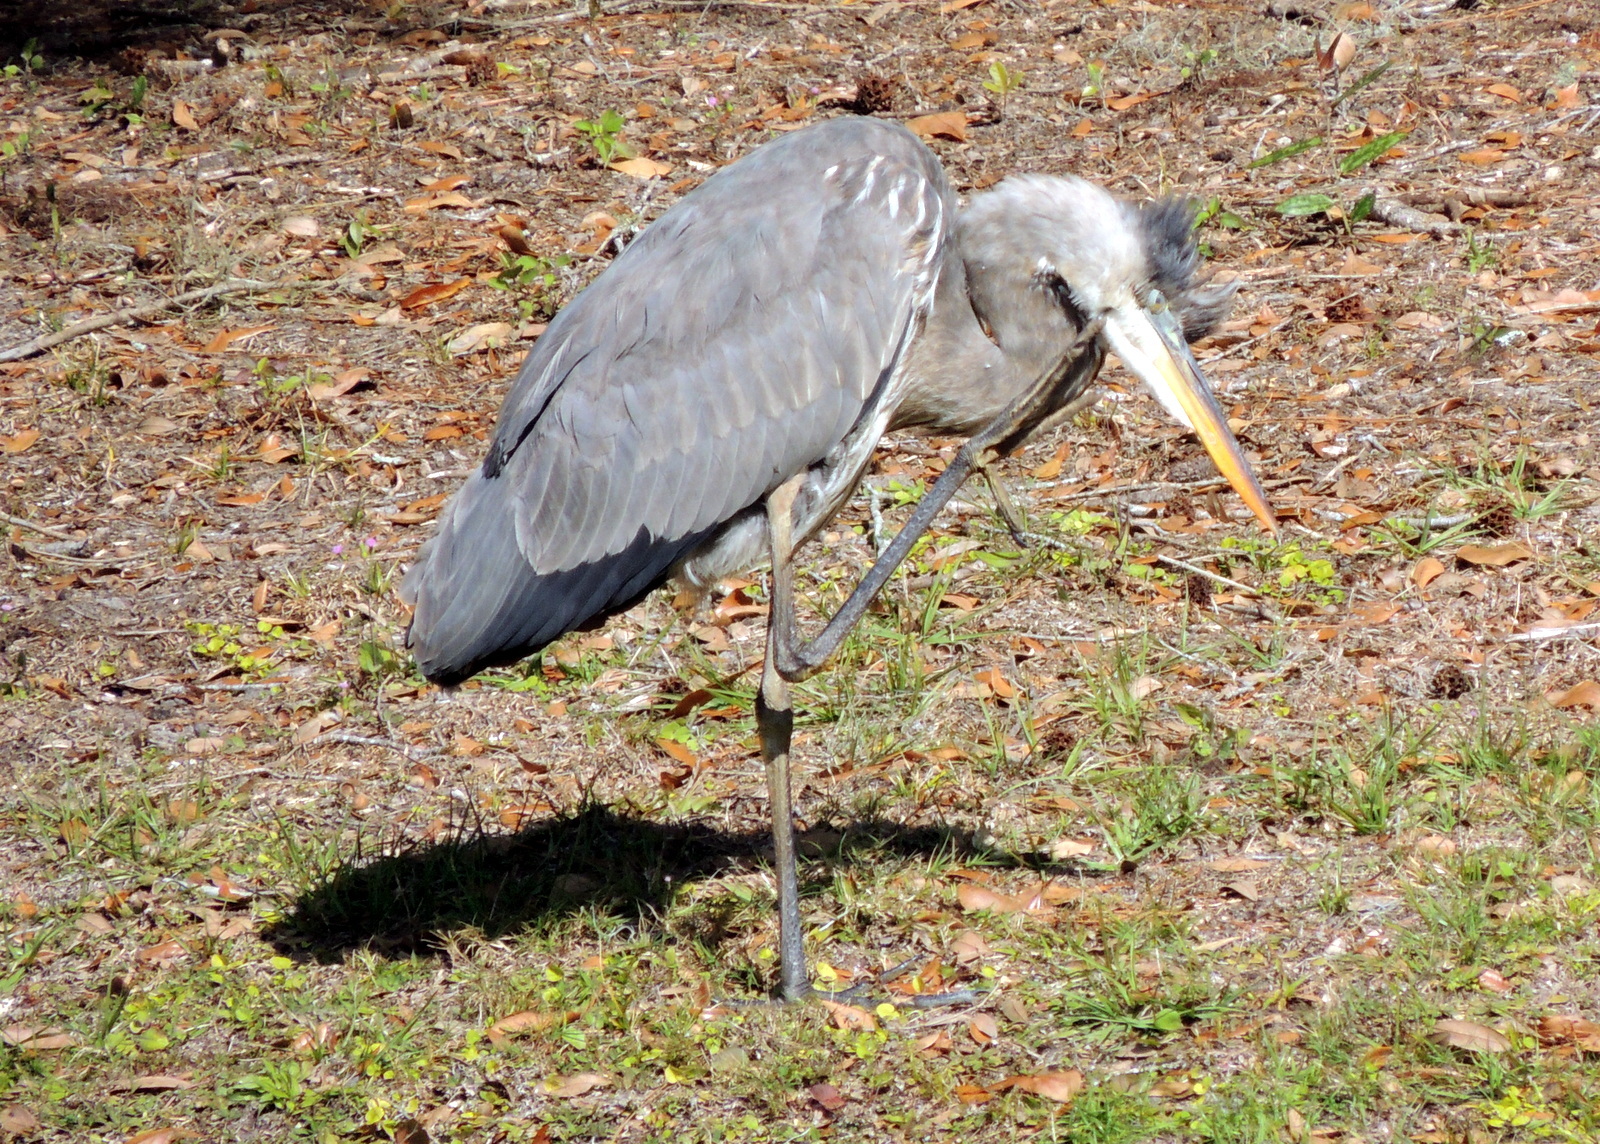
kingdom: Animalia
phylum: Chordata
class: Aves
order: Pelecaniformes
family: Ardeidae
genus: Ardea
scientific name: Ardea herodias
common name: Great blue heron
